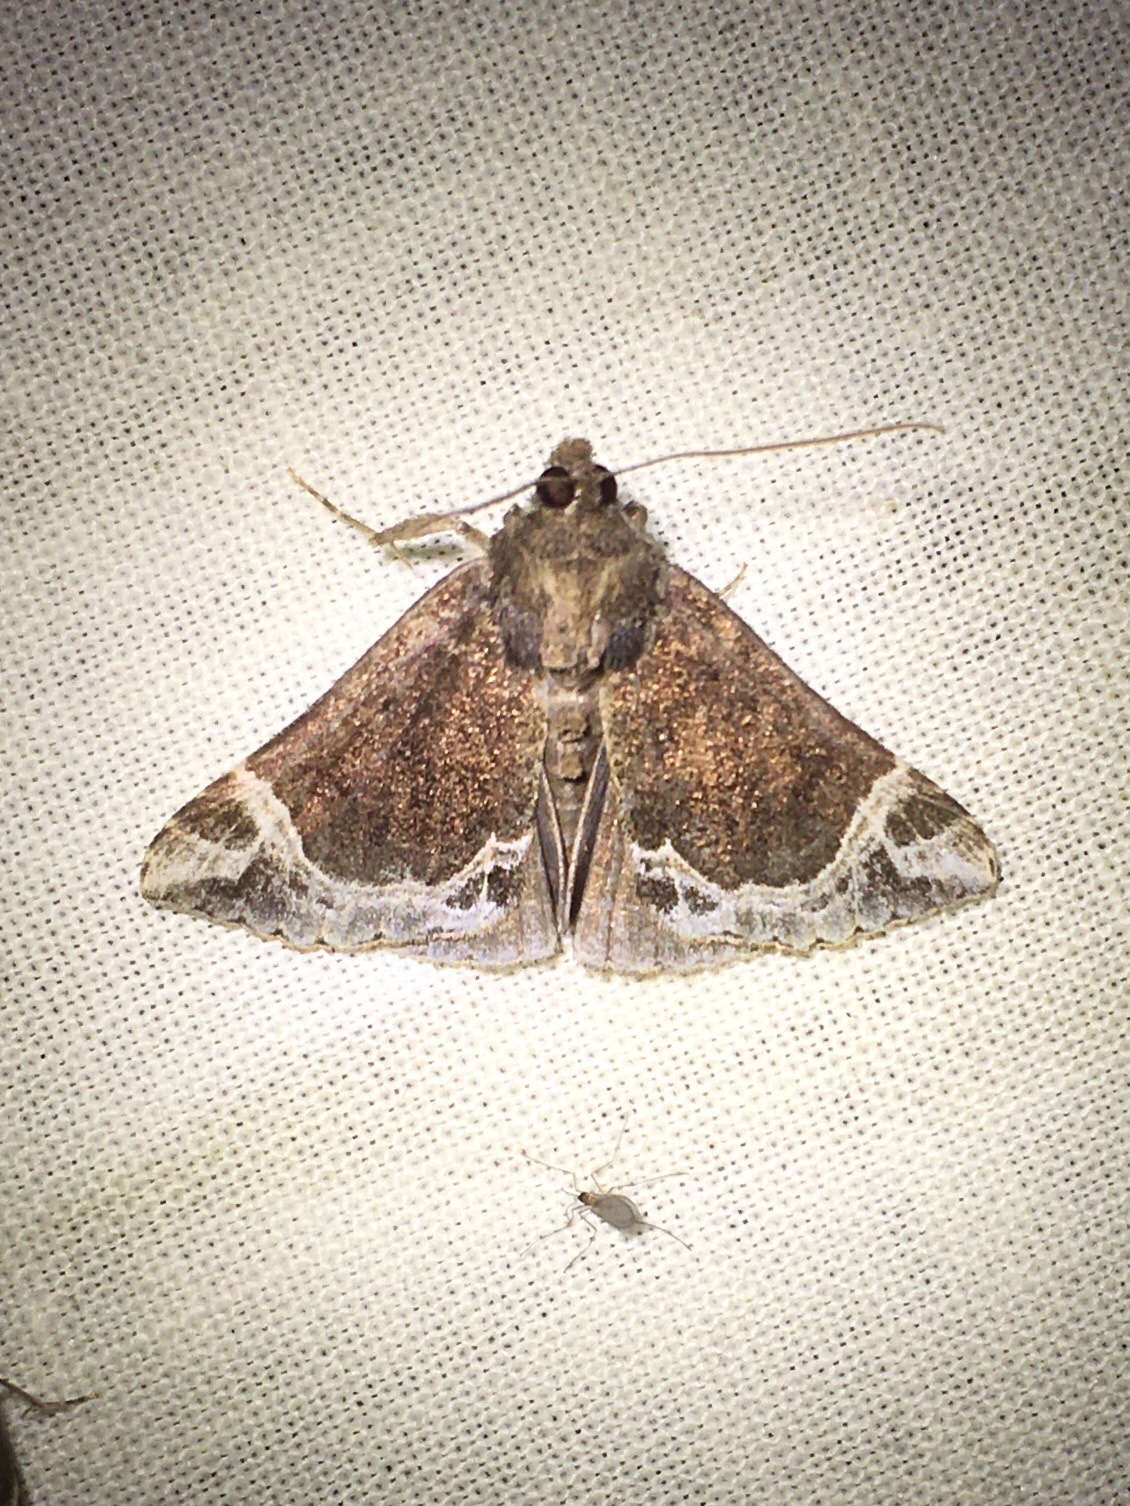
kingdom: Animalia
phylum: Arthropoda
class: Insecta
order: Lepidoptera
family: Erebidae
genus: Hypena
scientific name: Hypena abalienalis
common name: White-lined snout
